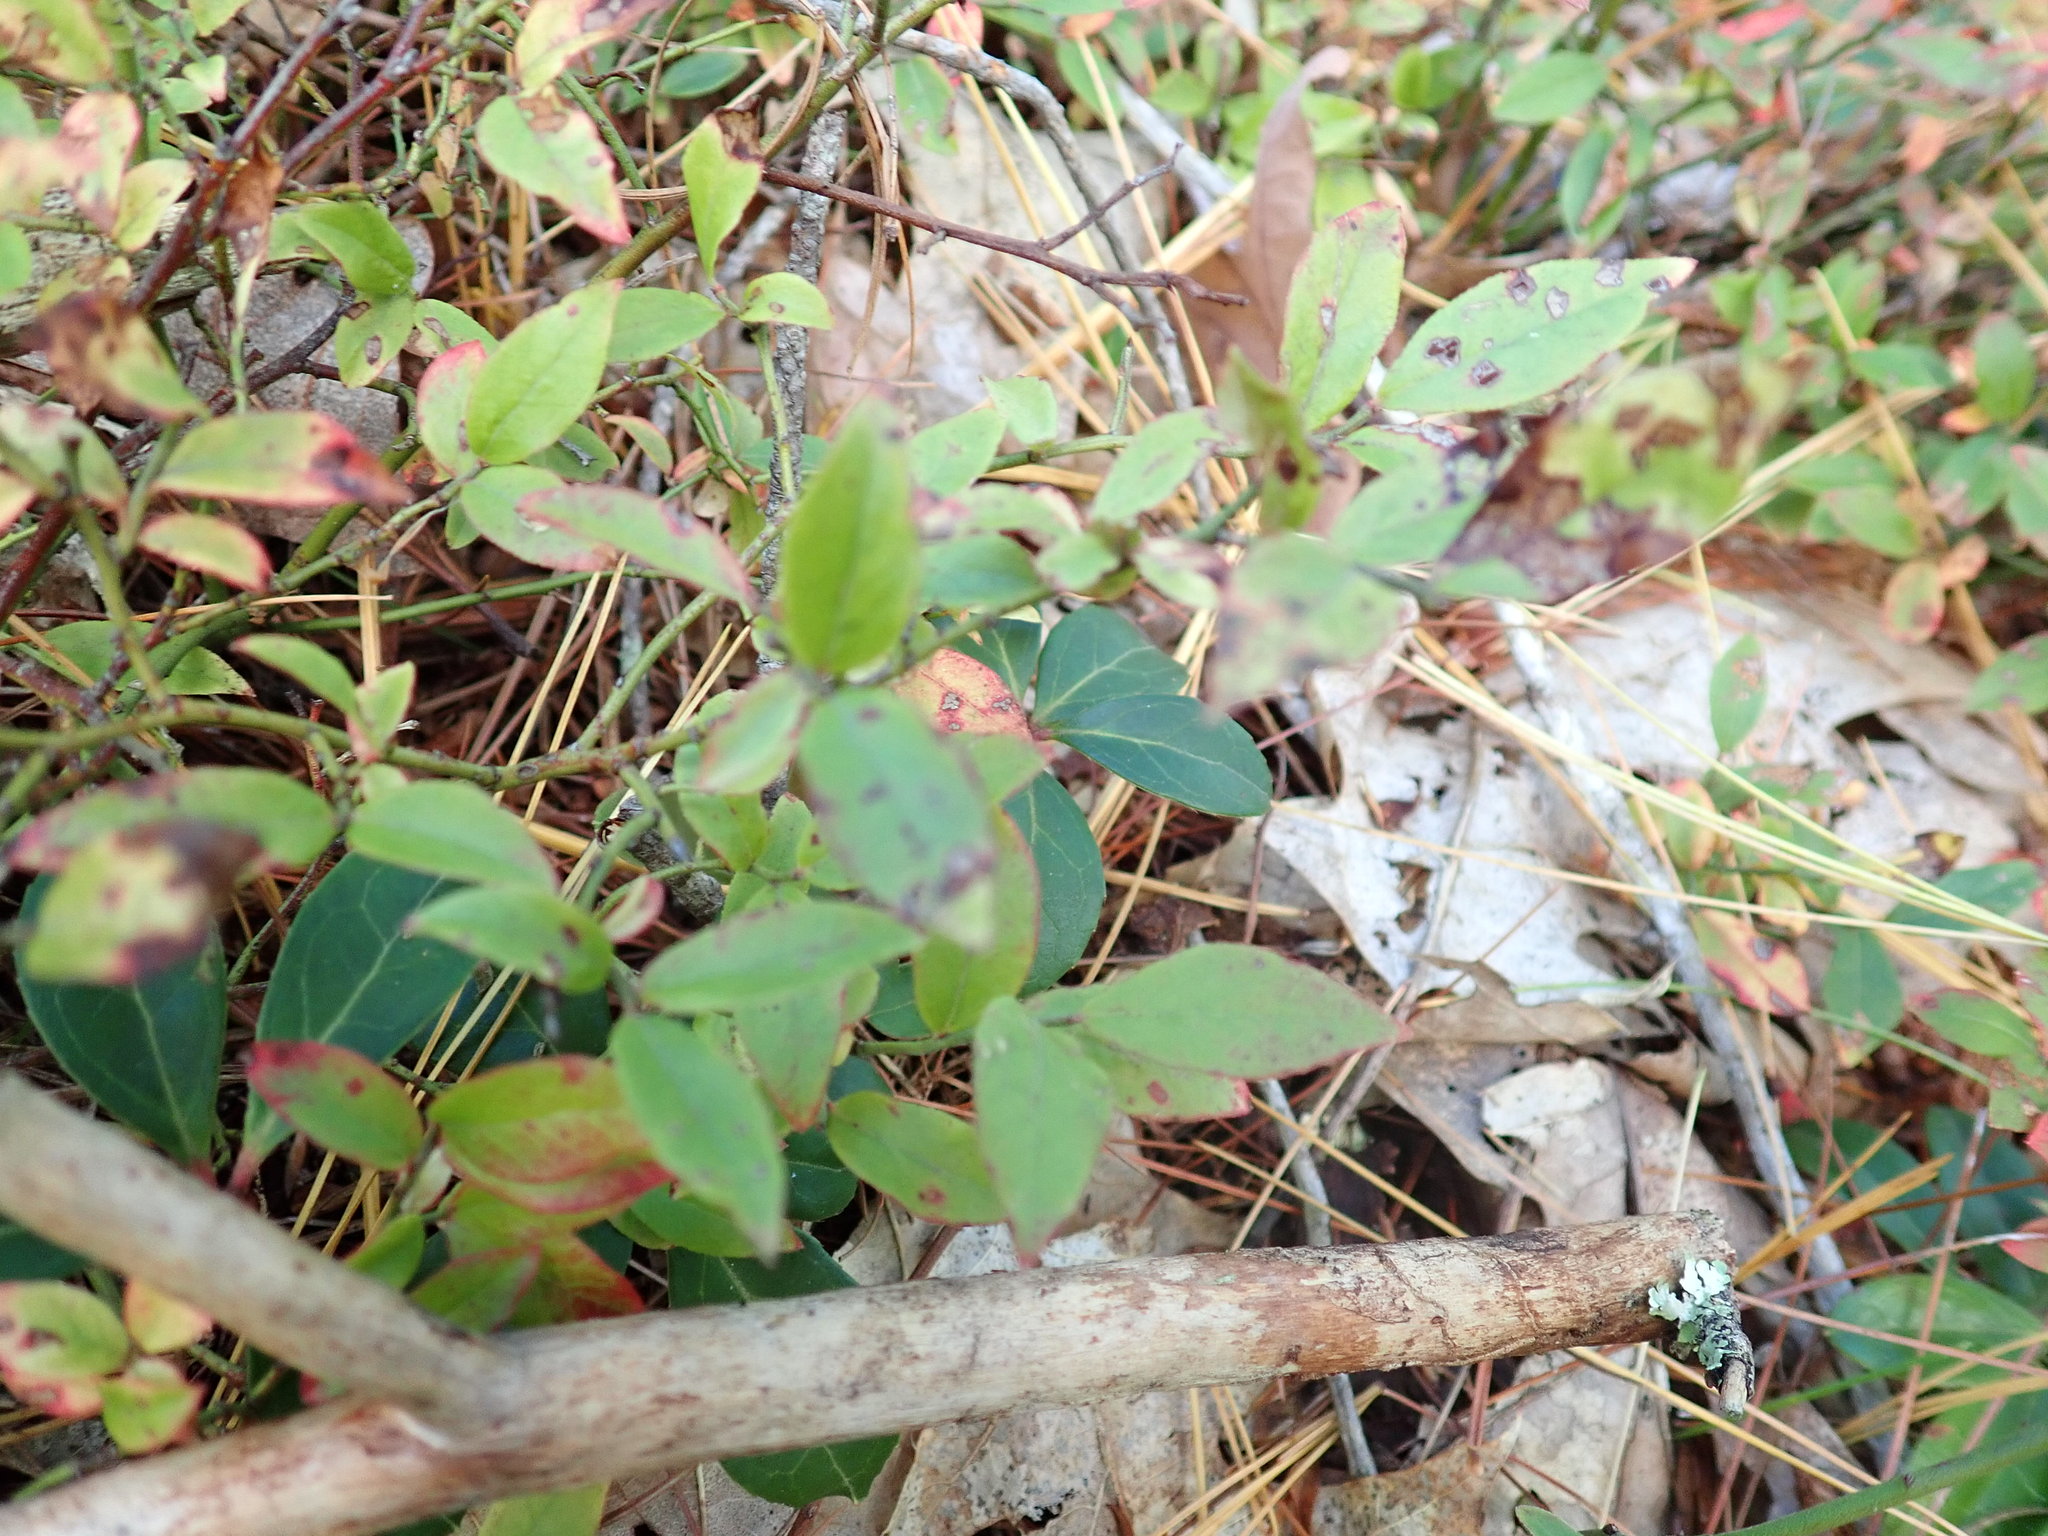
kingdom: Plantae
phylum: Tracheophyta
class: Magnoliopsida
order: Ericales
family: Ericaceae
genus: Vaccinium
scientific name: Vaccinium angustifolium
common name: Early lowbush blueberry
